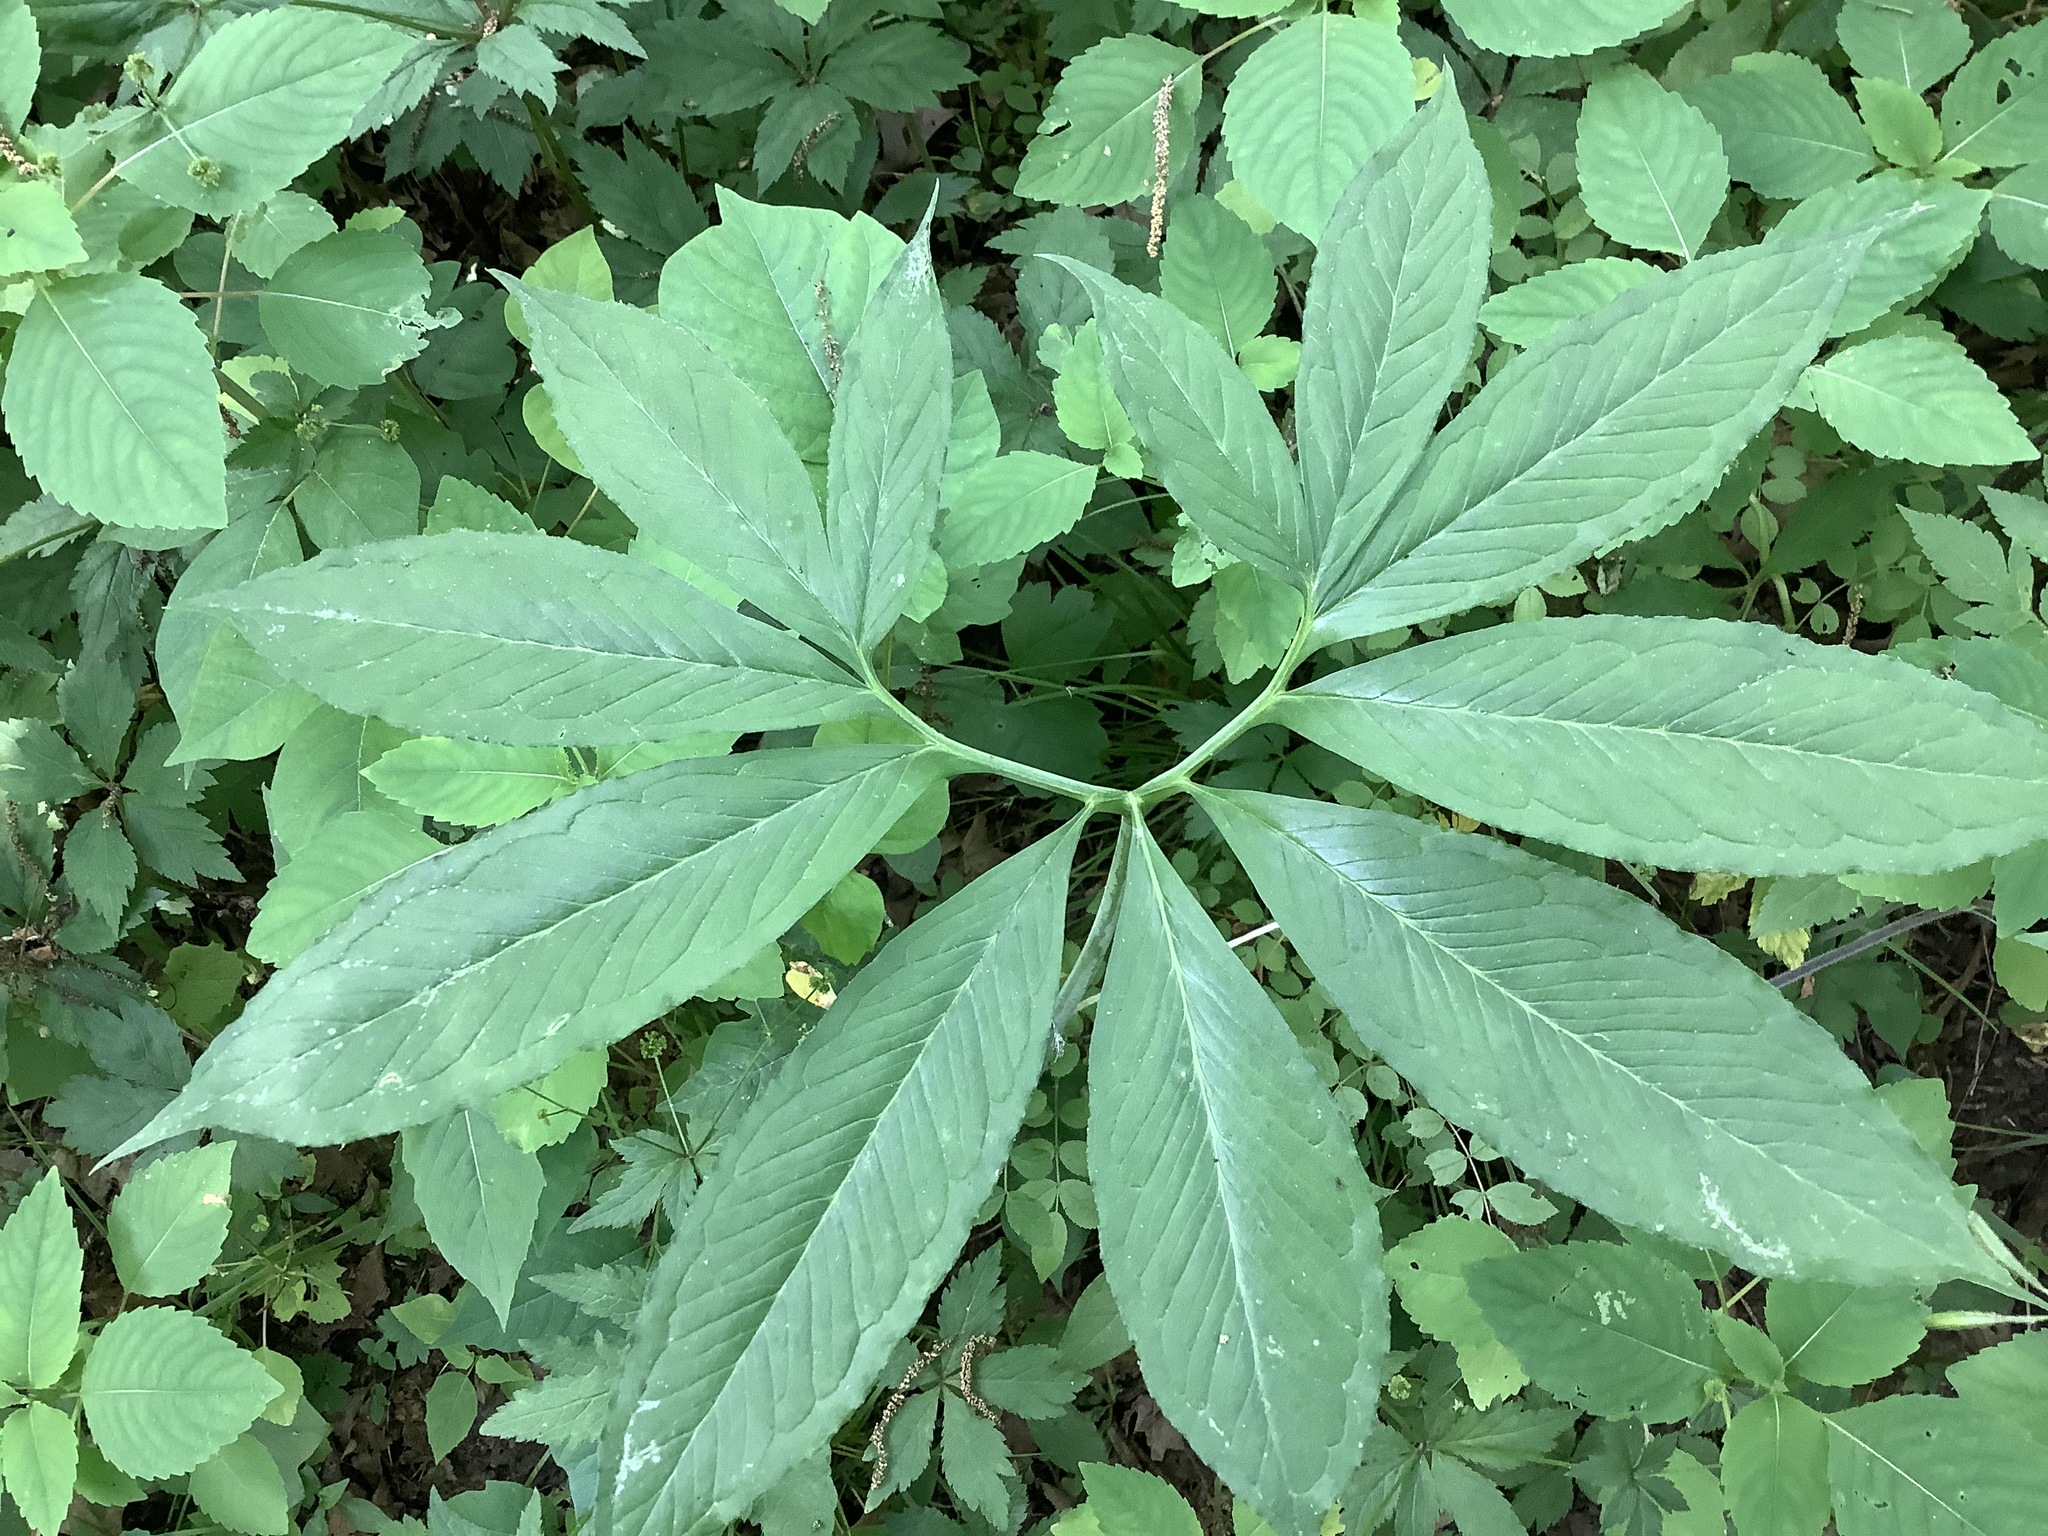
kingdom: Plantae
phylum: Tracheophyta
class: Liliopsida
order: Alismatales
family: Araceae
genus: Arisaema
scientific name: Arisaema dracontium
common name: Dragon-arum
